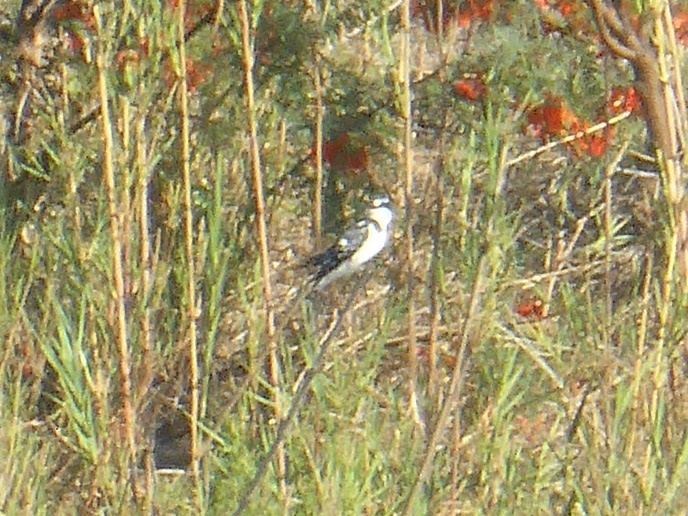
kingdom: Animalia
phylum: Chordata
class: Aves
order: Coraciiformes
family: Alcedinidae
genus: Ceryle
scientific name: Ceryle rudis
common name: Pied kingfisher
